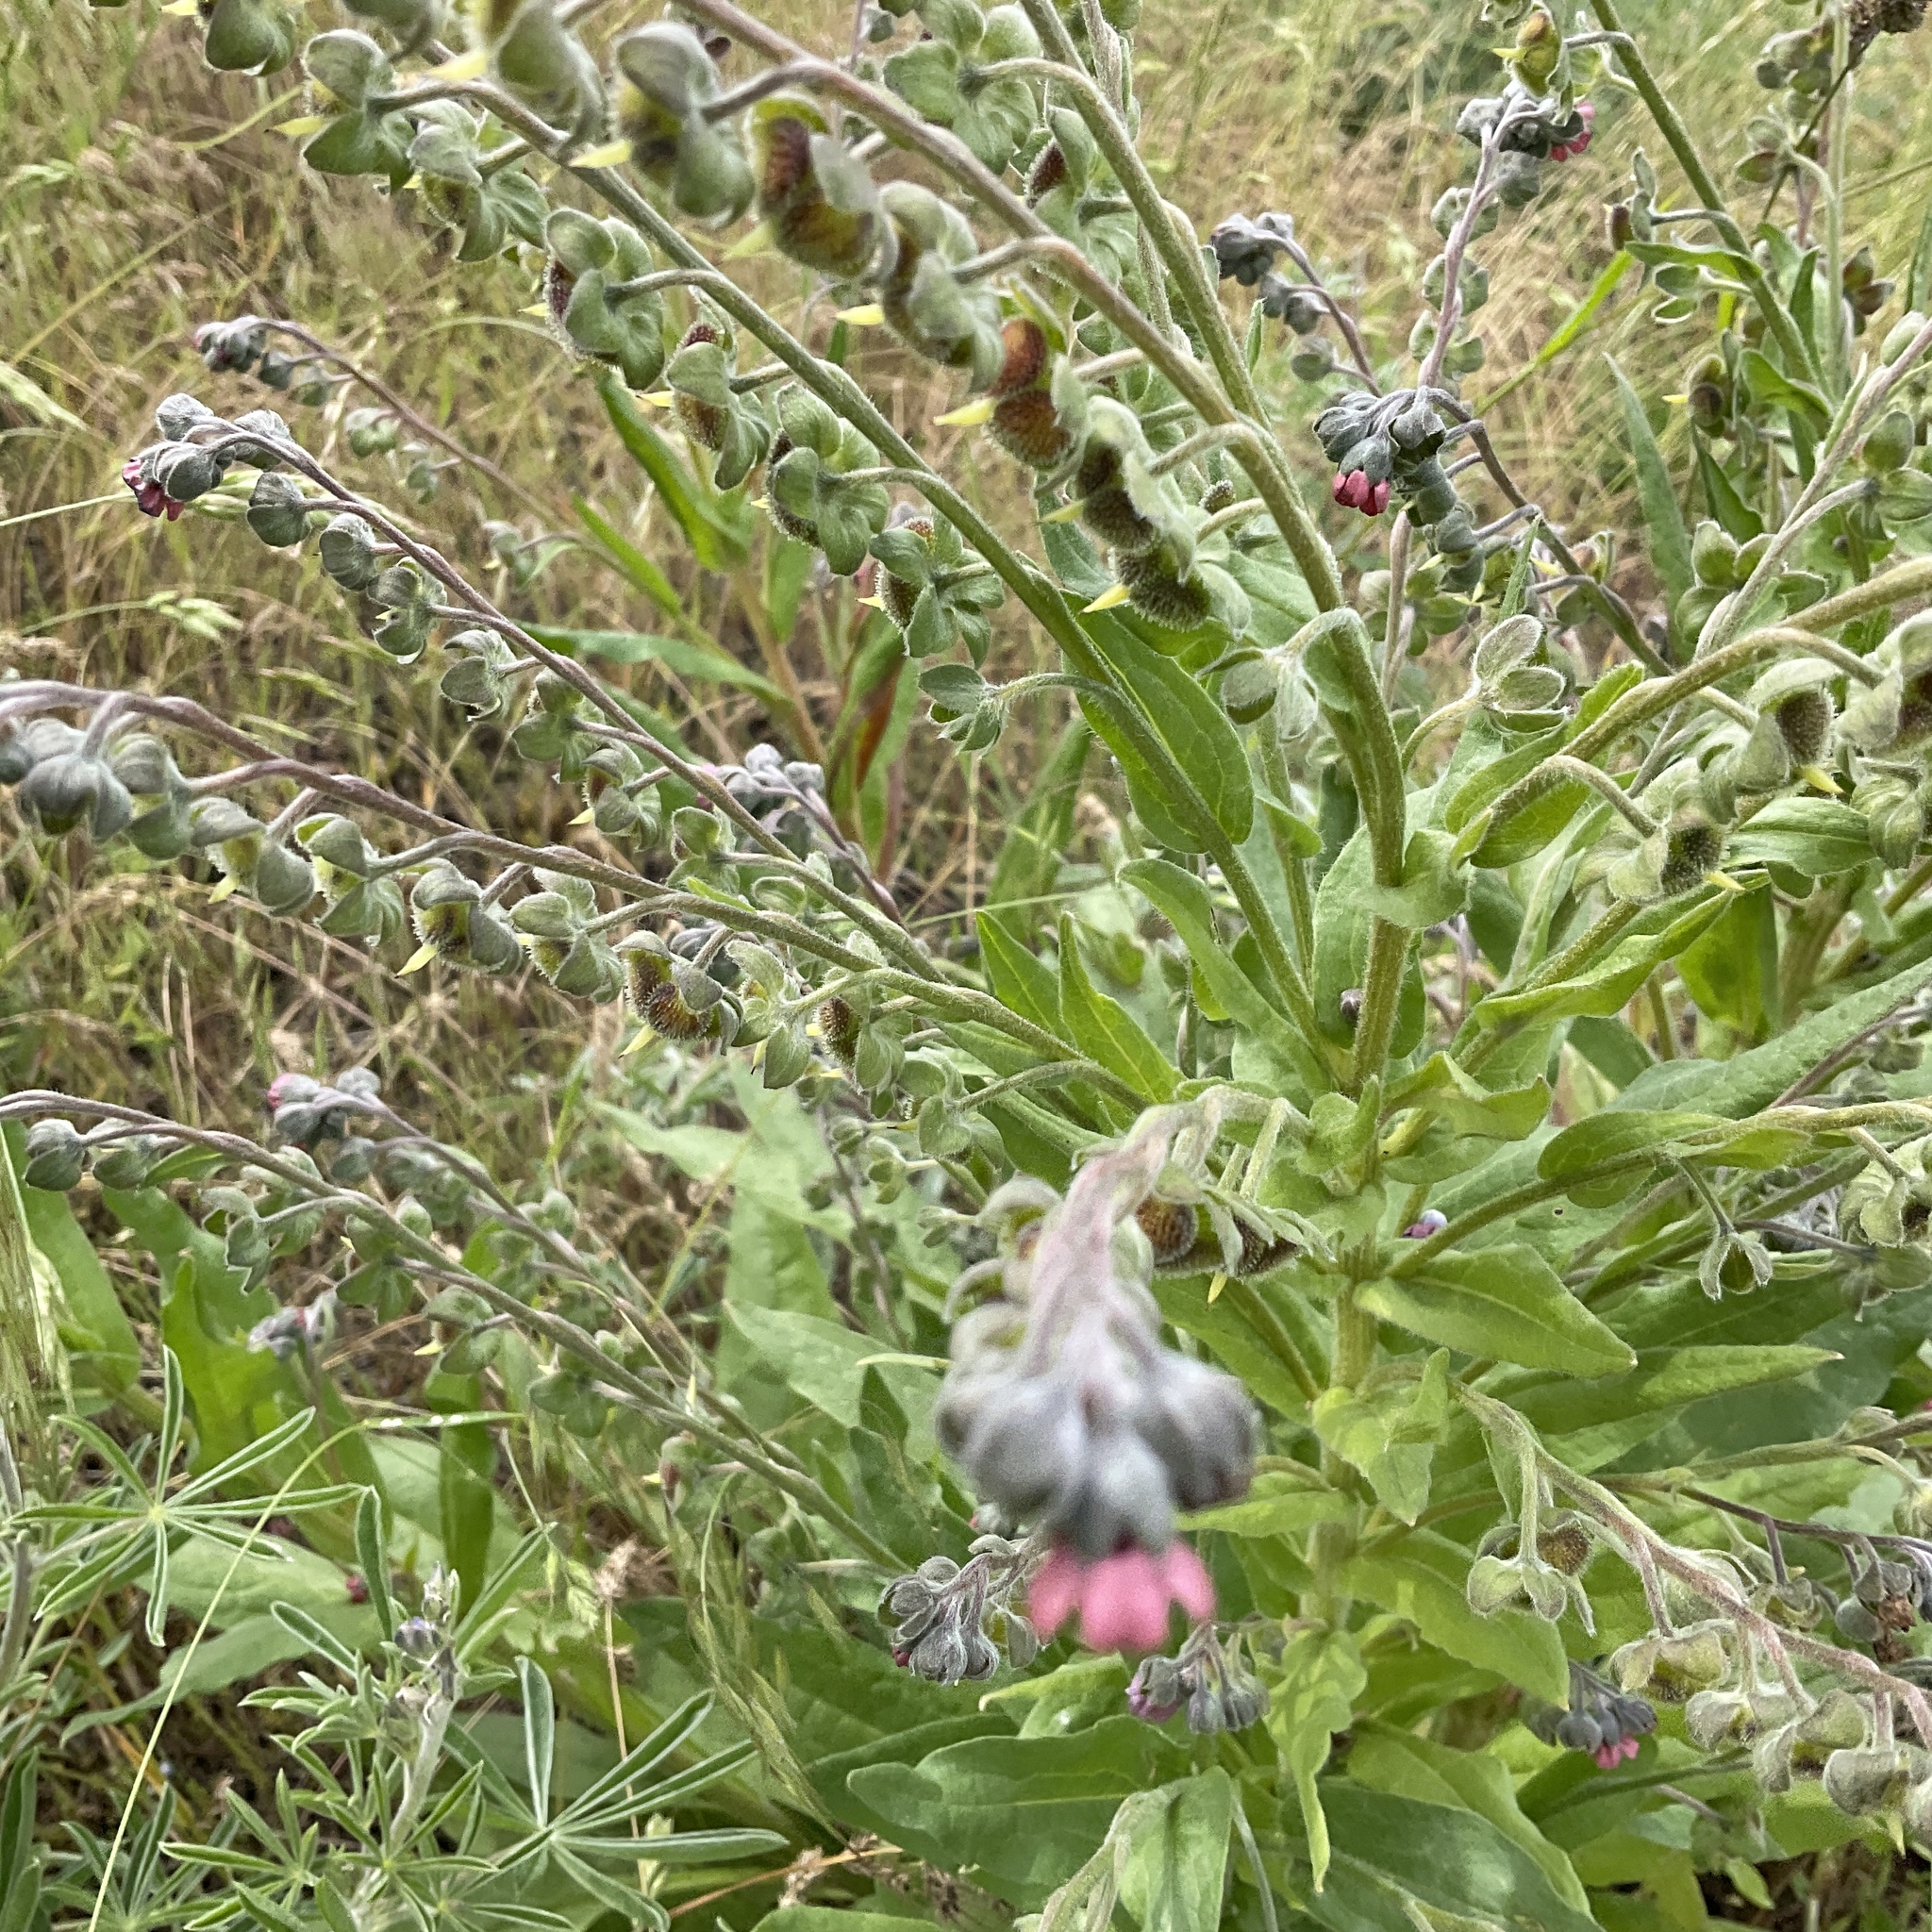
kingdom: Plantae
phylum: Tracheophyta
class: Magnoliopsida
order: Boraginales
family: Boraginaceae
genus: Cynoglossum
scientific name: Cynoglossum officinale
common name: Hound's-tongue
